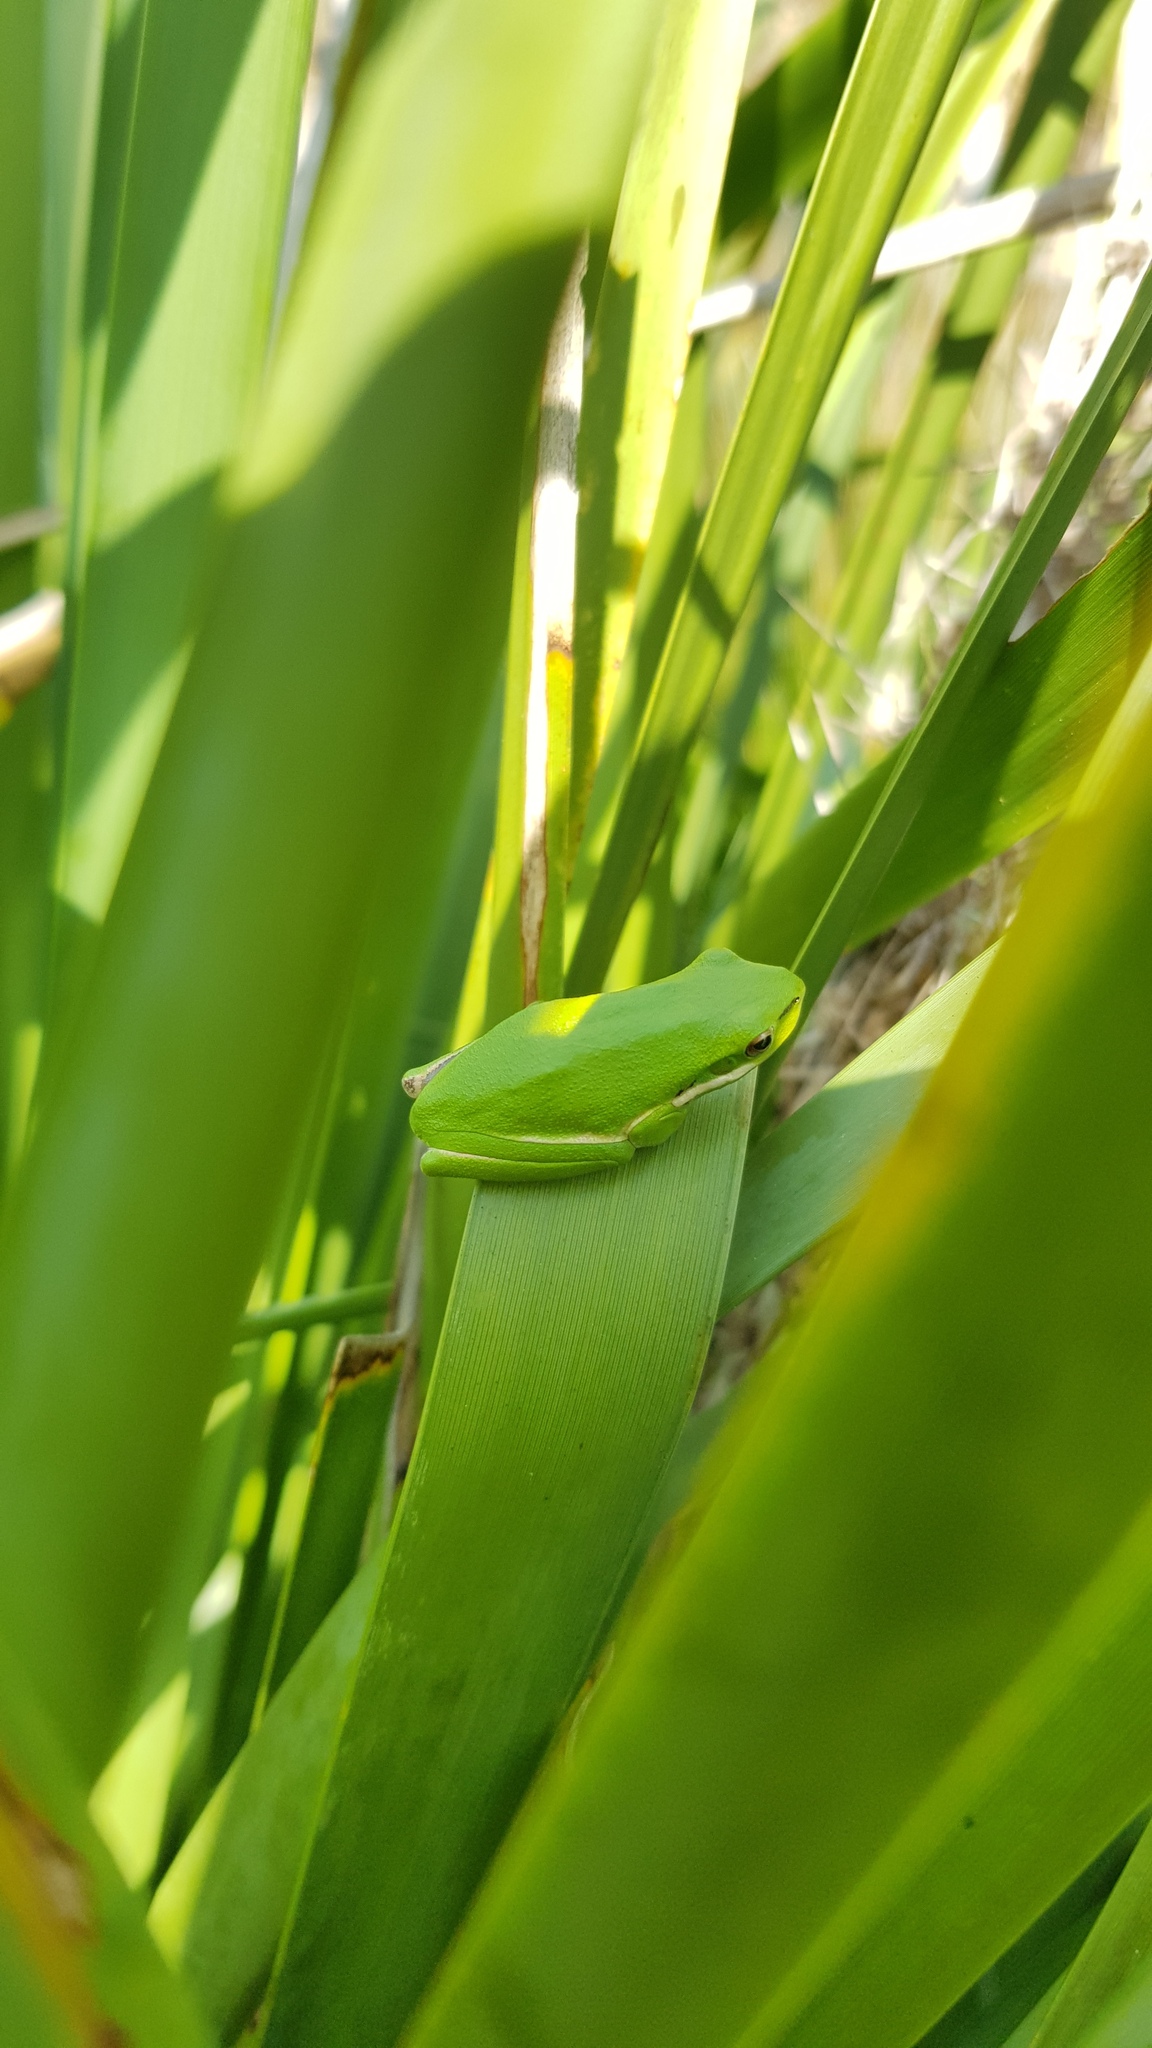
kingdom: Animalia
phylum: Chordata
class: Amphibia
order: Anura
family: Pelodryadidae
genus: Litoria
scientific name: Litoria fallax
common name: Eastern dwarf treefrog
